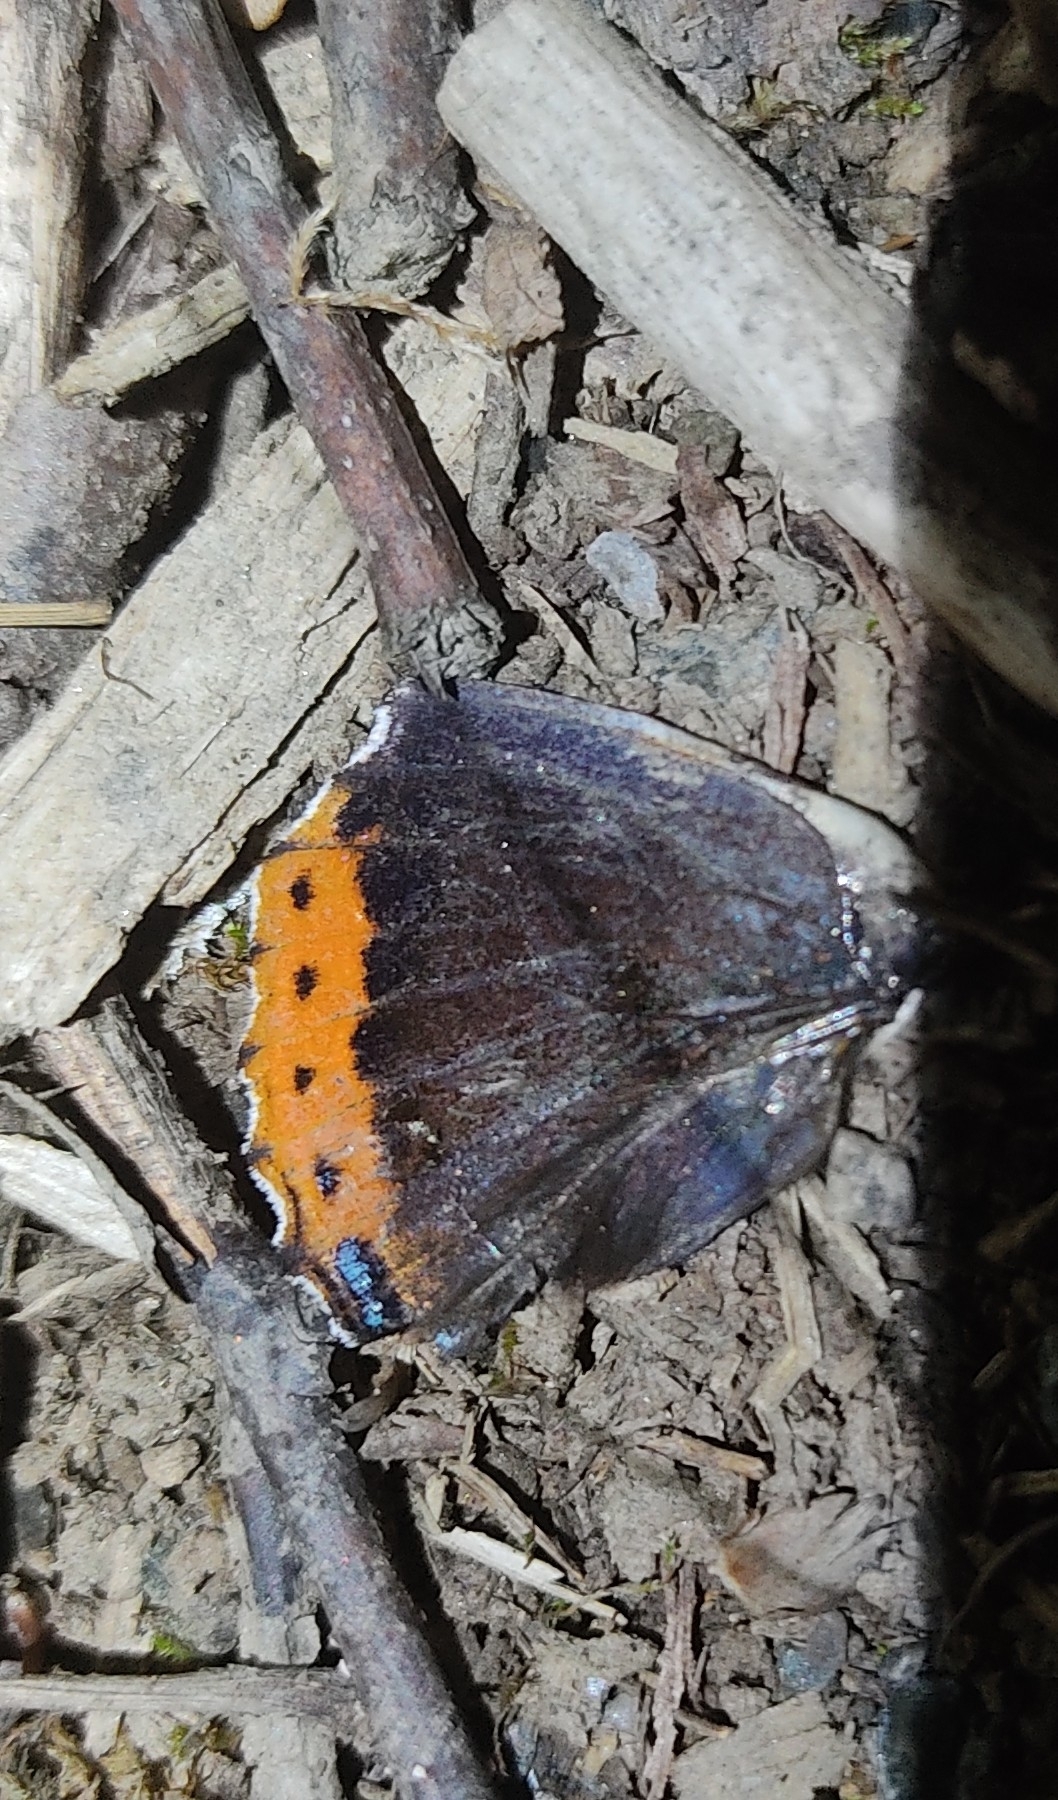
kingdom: Animalia
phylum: Arthropoda
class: Insecta
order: Lepidoptera
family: Nymphalidae
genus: Vanessa
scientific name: Vanessa atalanta
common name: Red admiral
